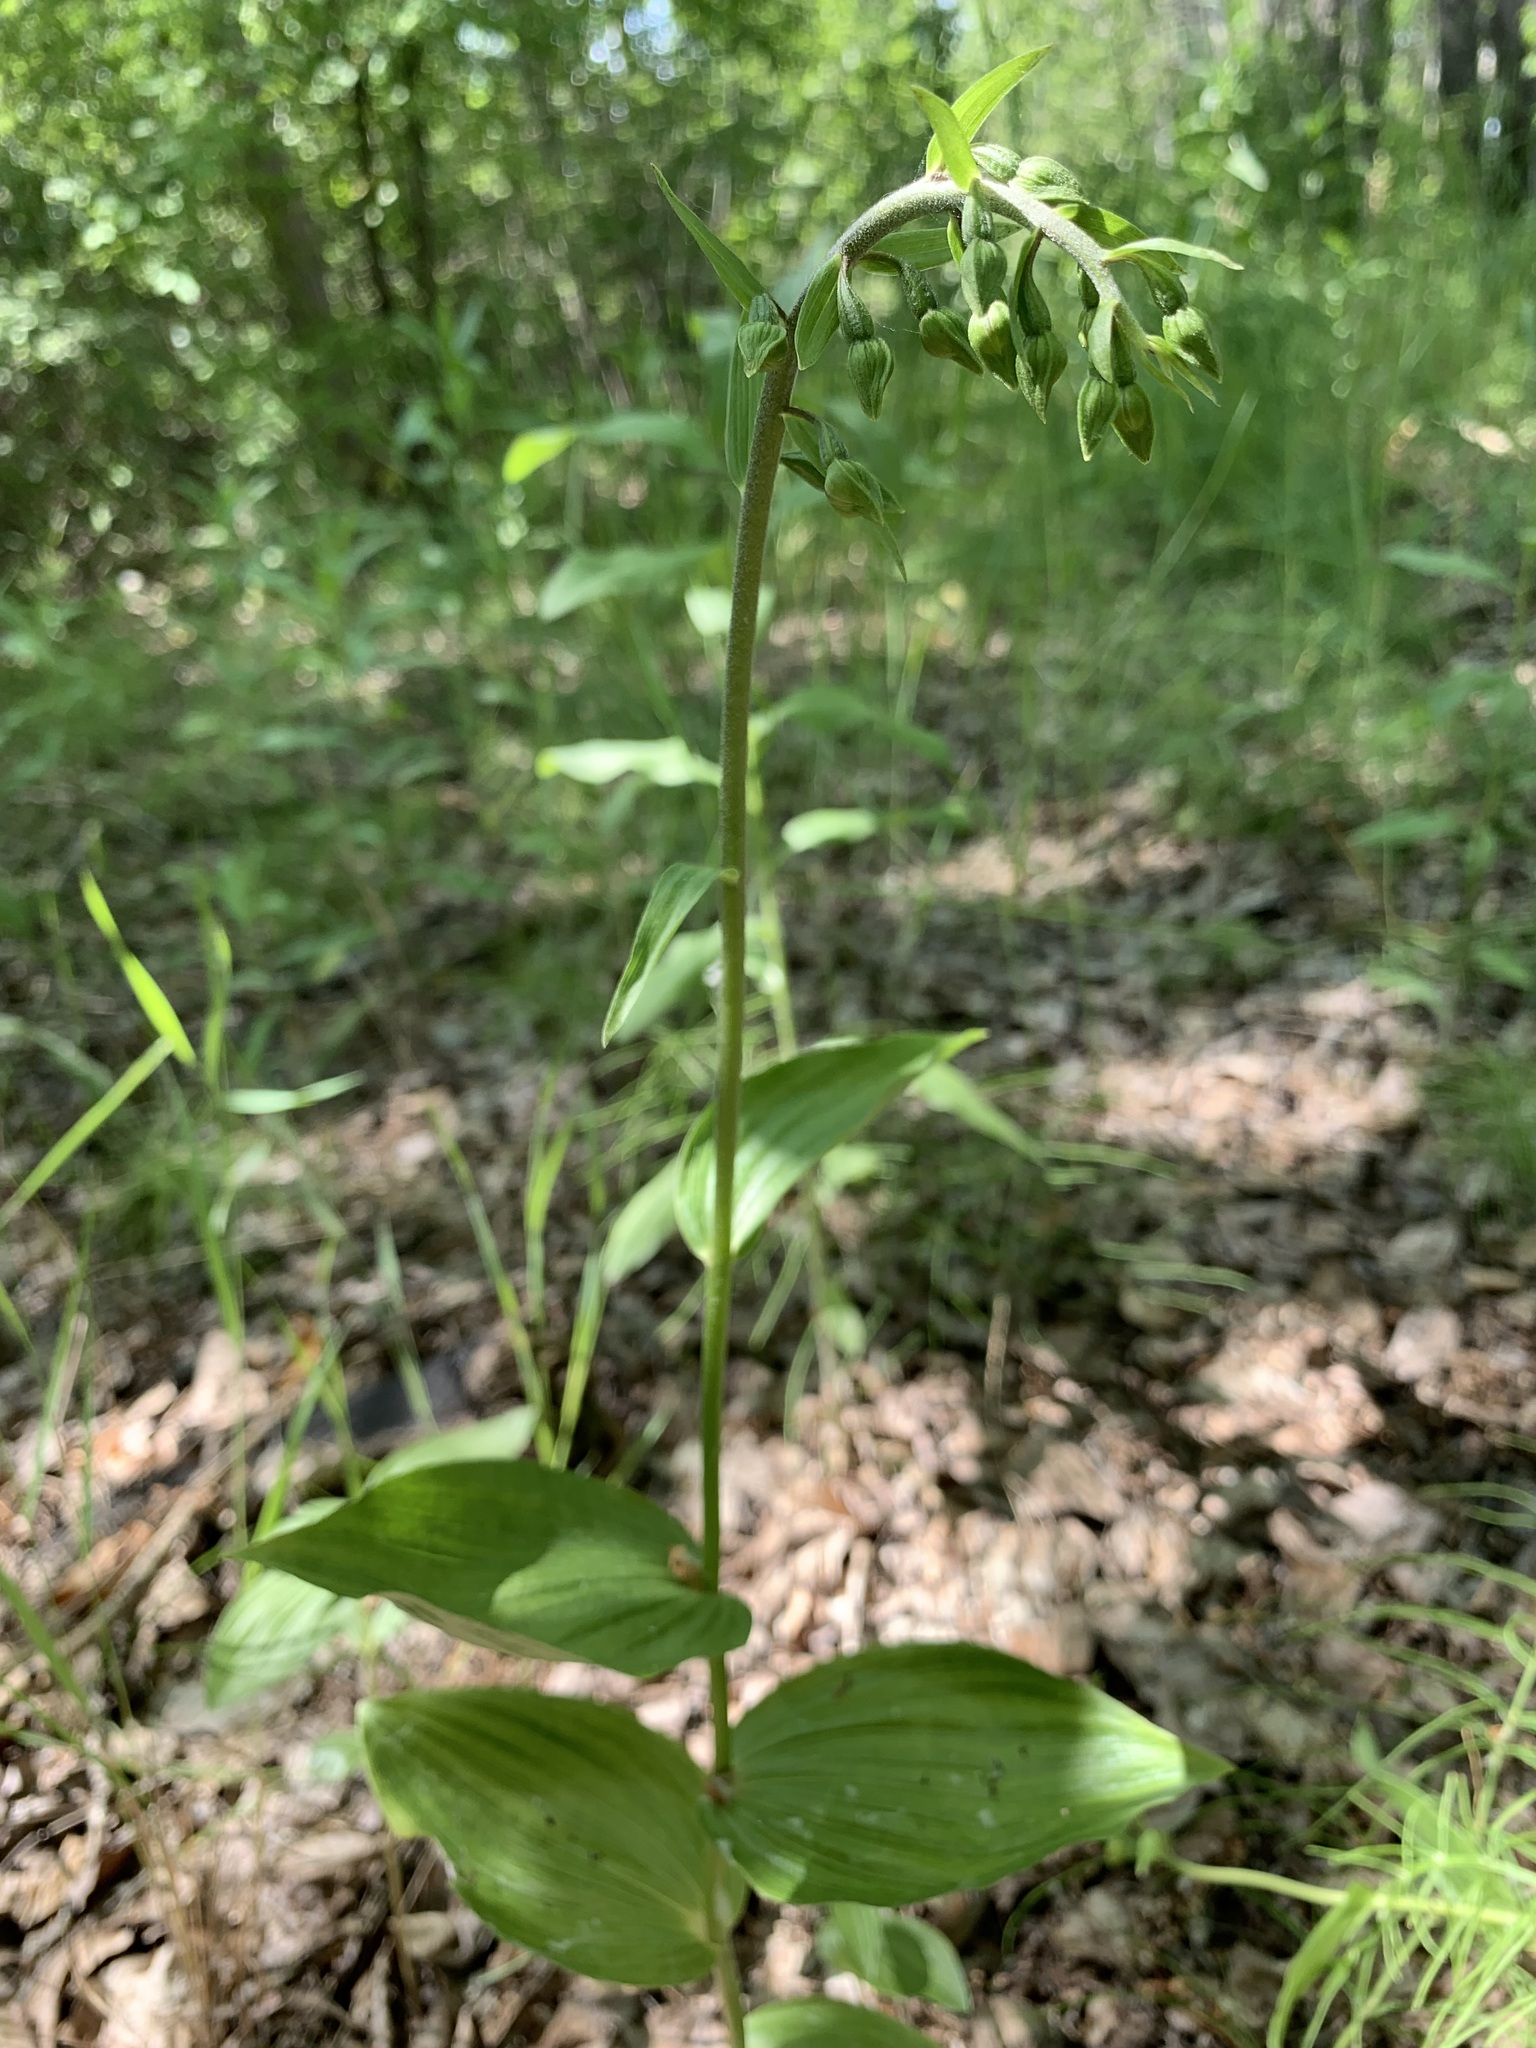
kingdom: Plantae
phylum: Tracheophyta
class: Liliopsida
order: Asparagales
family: Orchidaceae
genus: Epipactis
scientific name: Epipactis helleborine
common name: Broad-leaved helleborine
